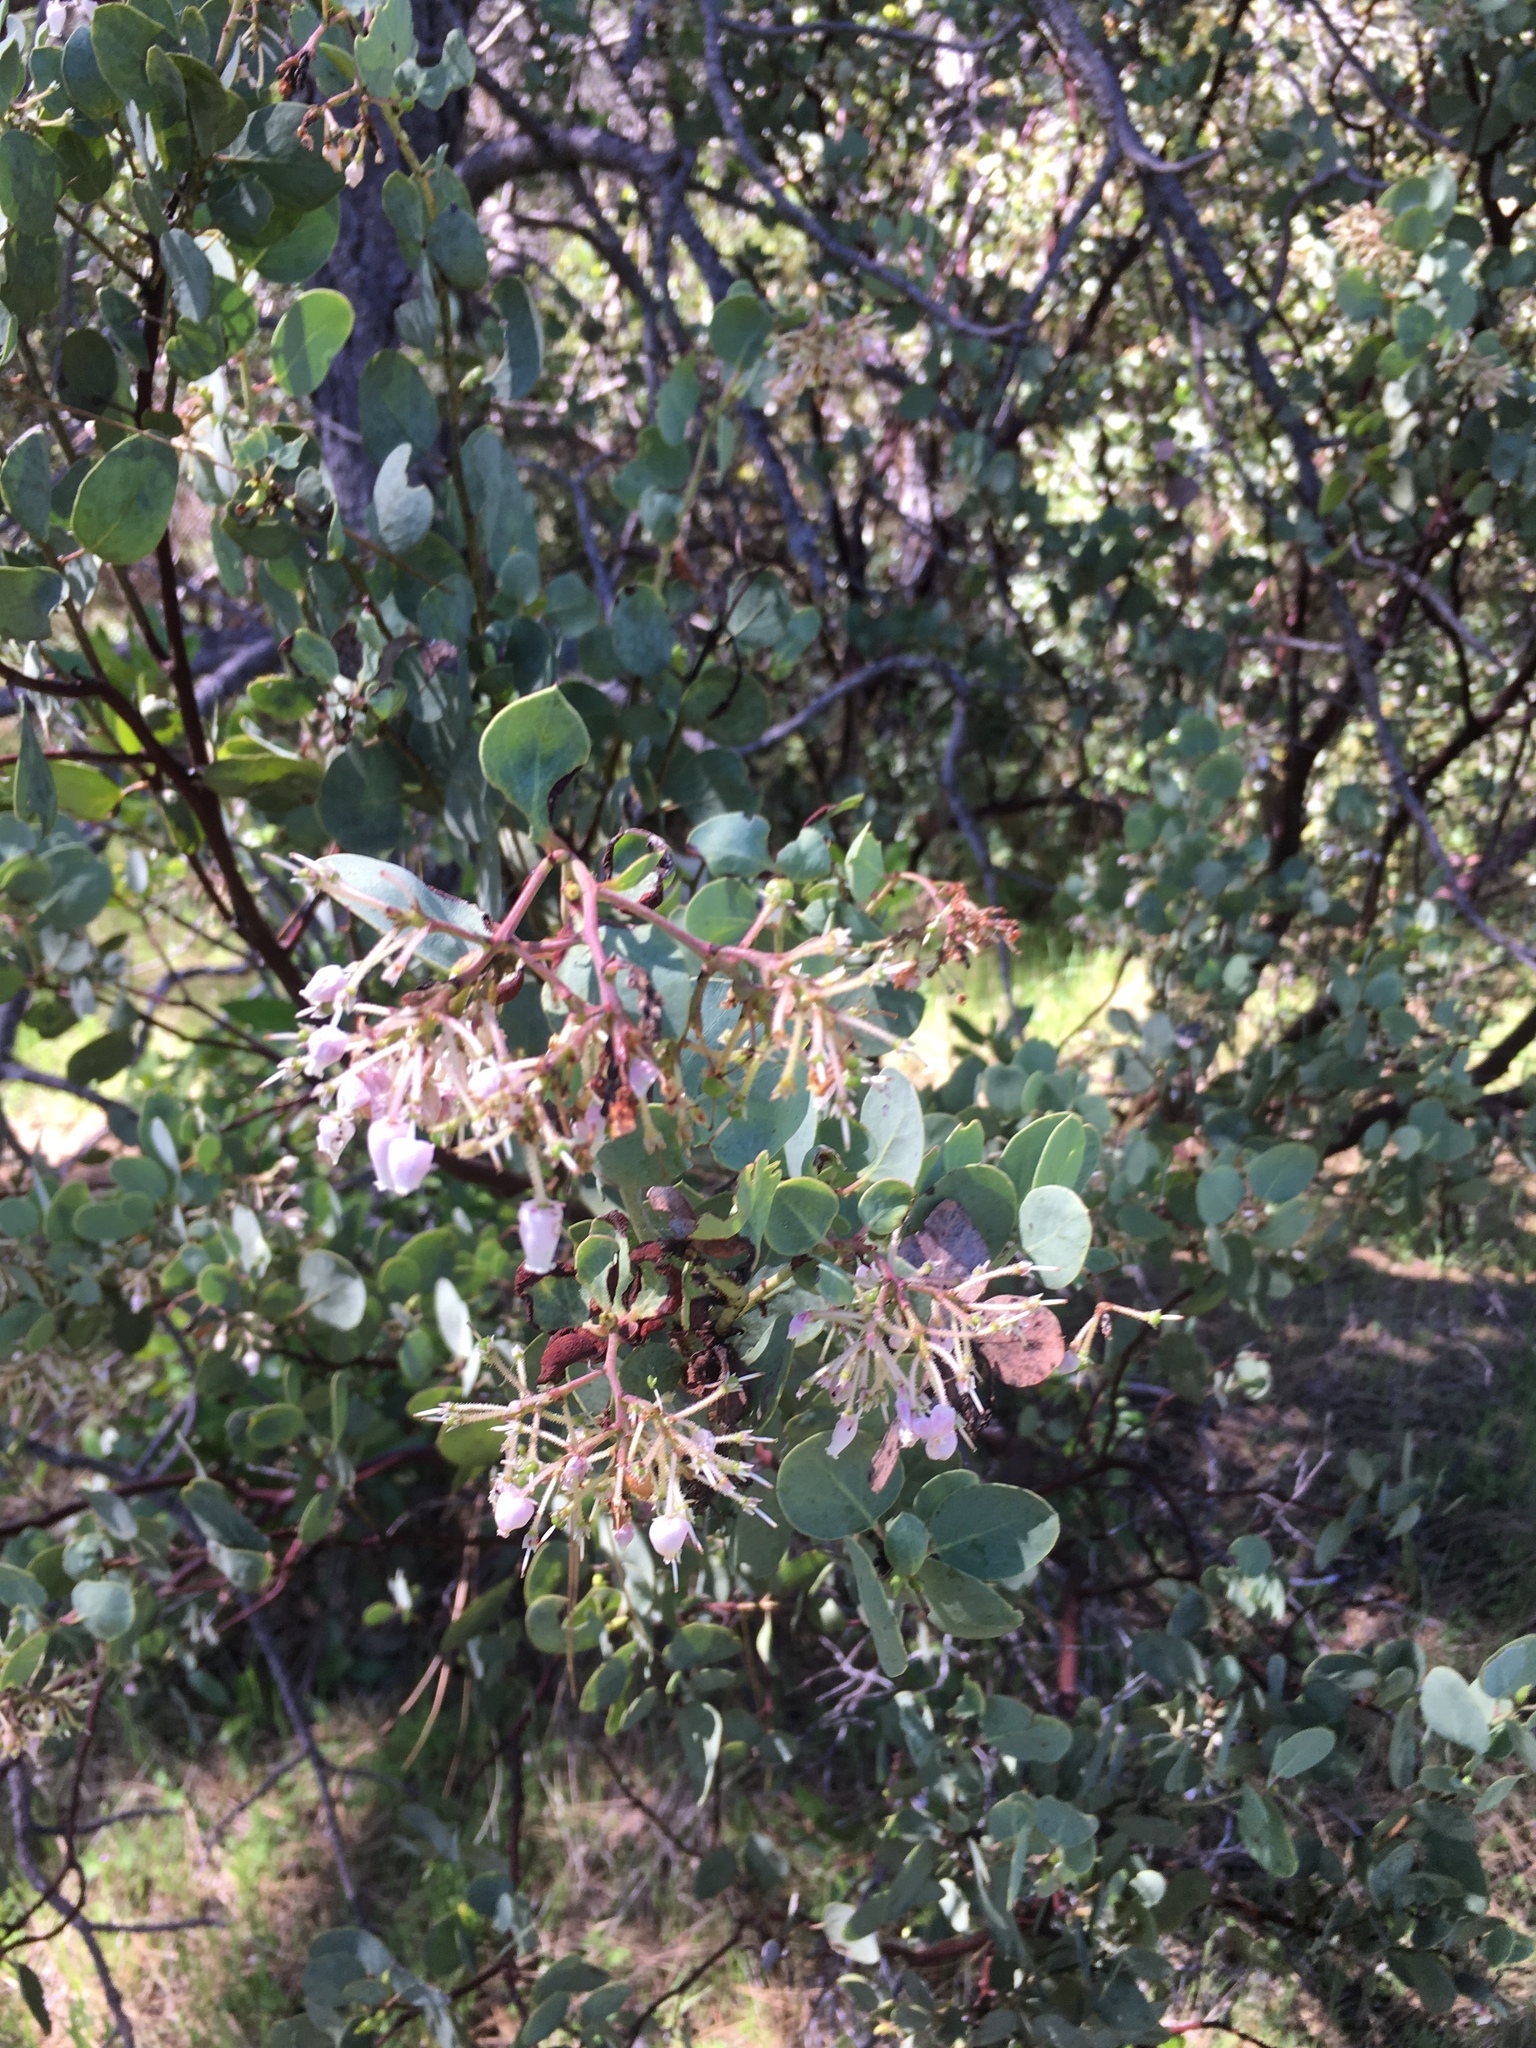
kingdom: Plantae
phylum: Tracheophyta
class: Magnoliopsida
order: Ericales
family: Ericaceae
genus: Arctostaphylos
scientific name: Arctostaphylos viscida
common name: White-leaf manzanita
